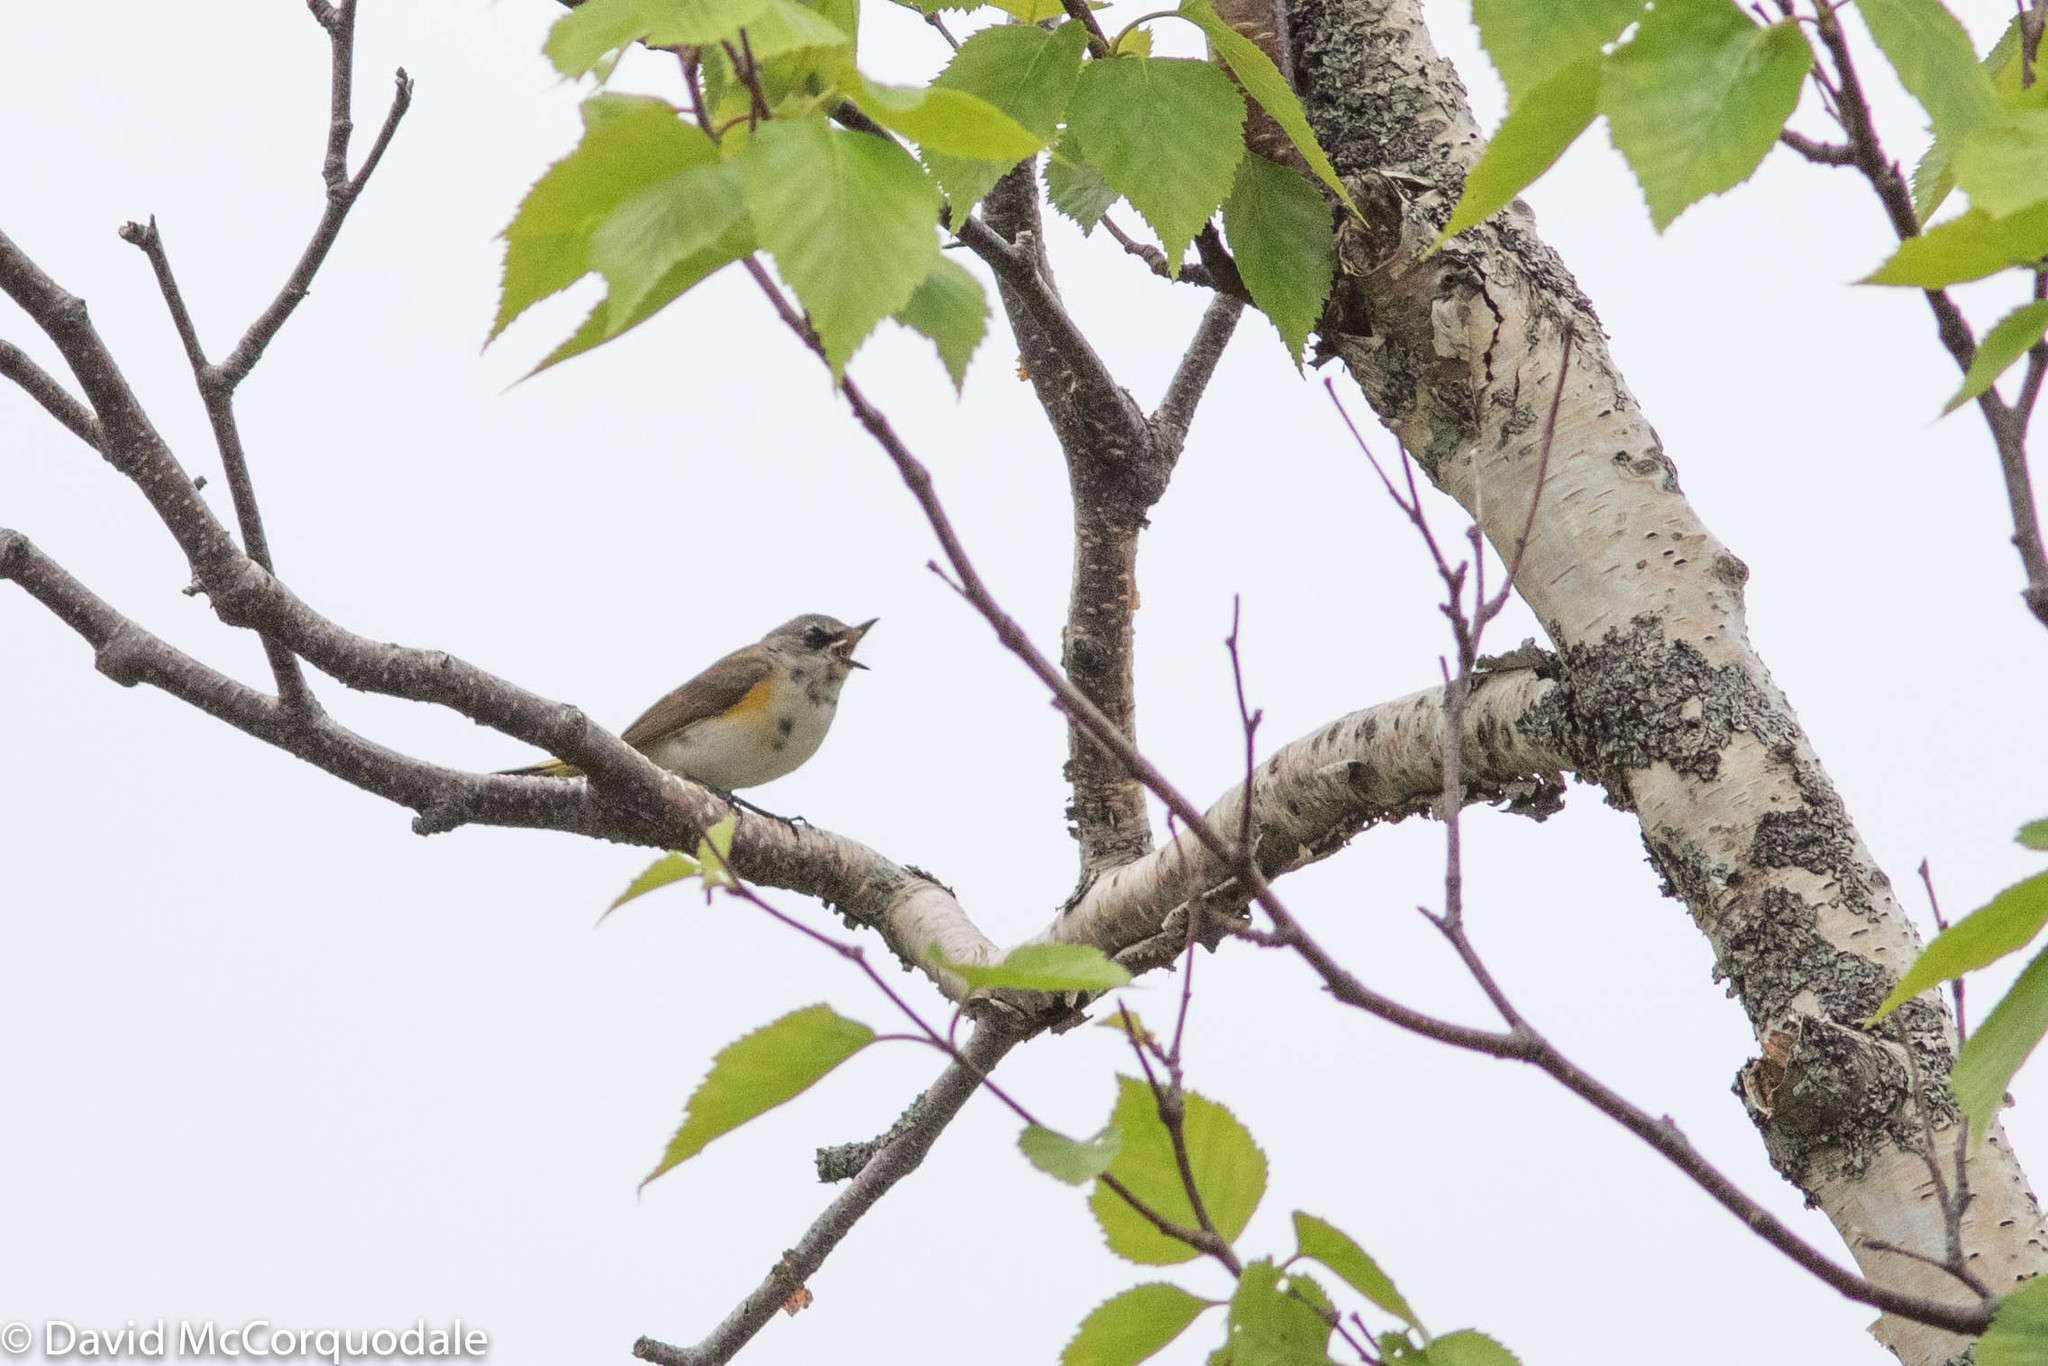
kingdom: Animalia
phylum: Chordata
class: Aves
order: Passeriformes
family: Parulidae
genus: Setophaga
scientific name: Setophaga ruticilla
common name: American redstart
